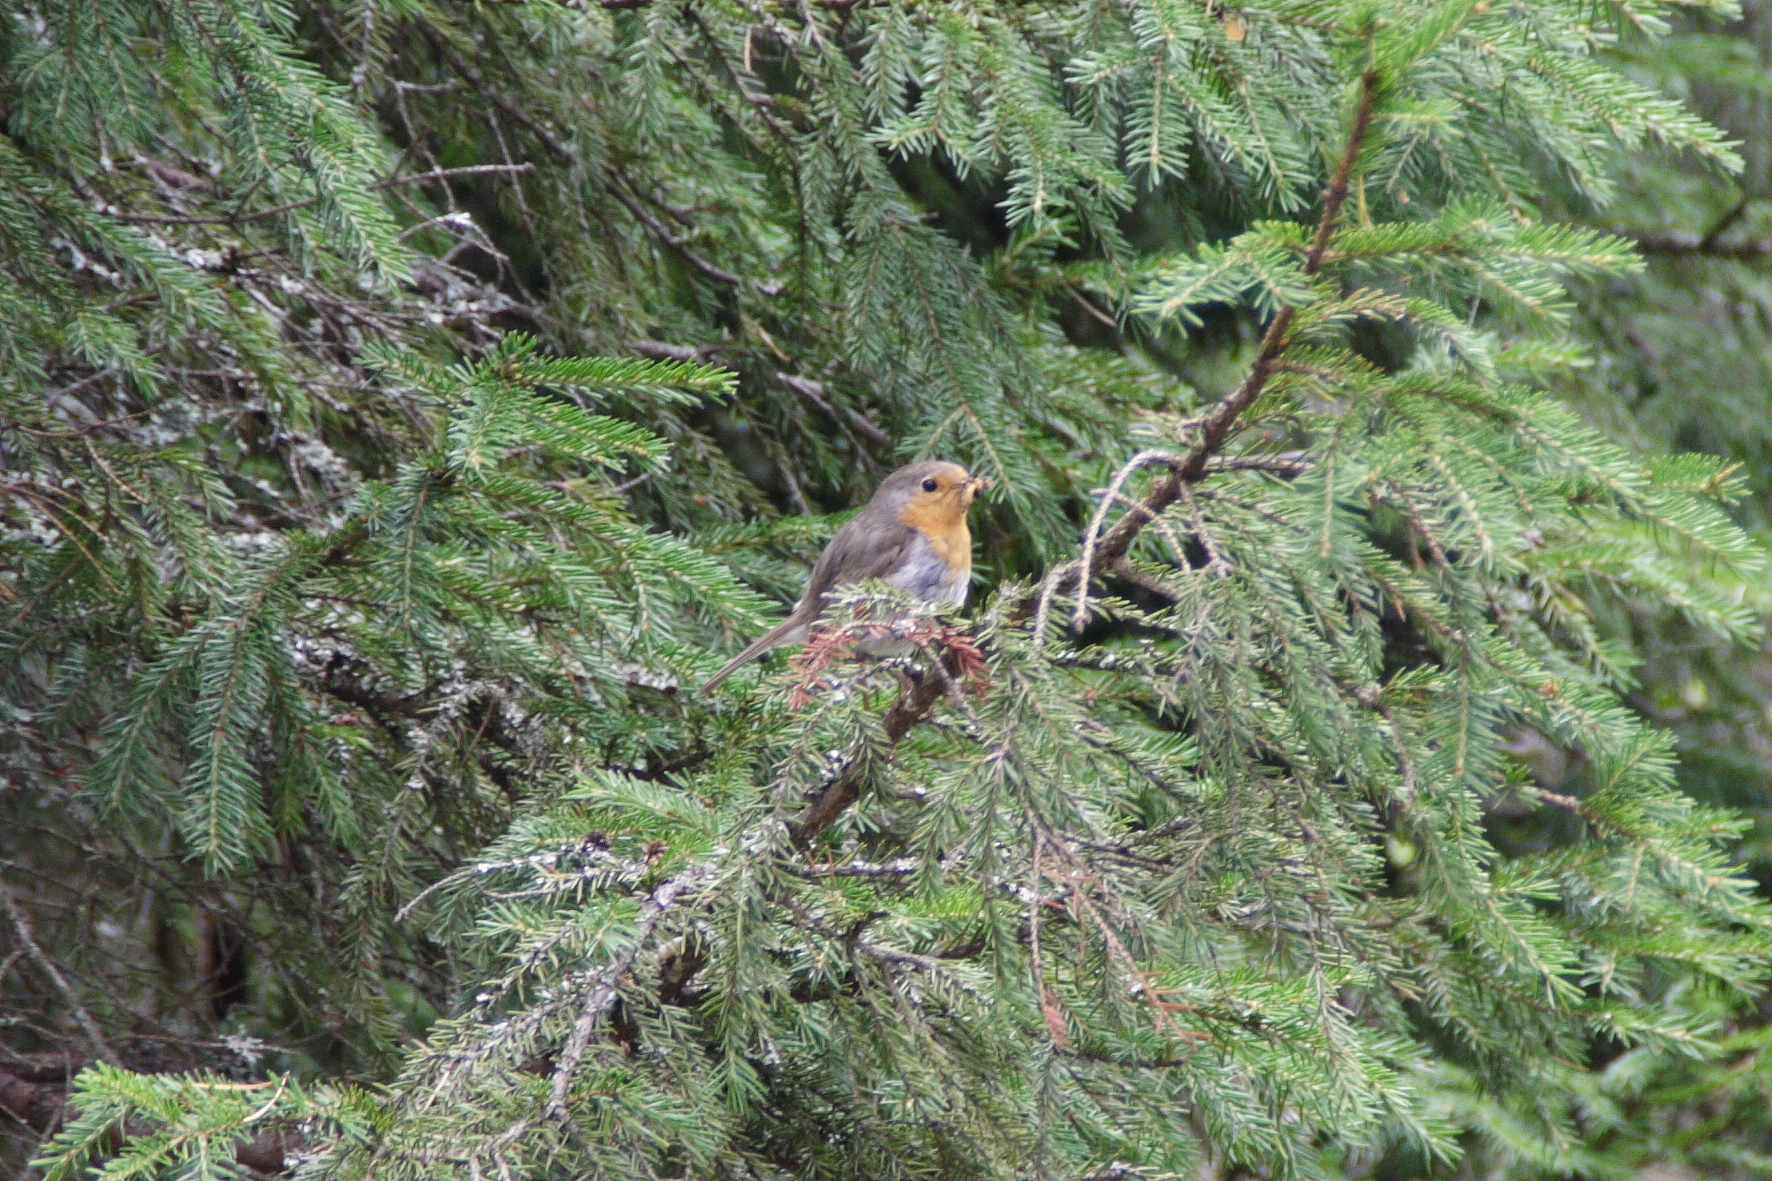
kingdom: Animalia
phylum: Chordata
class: Aves
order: Passeriformes
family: Muscicapidae
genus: Erithacus
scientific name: Erithacus rubecula
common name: European robin
